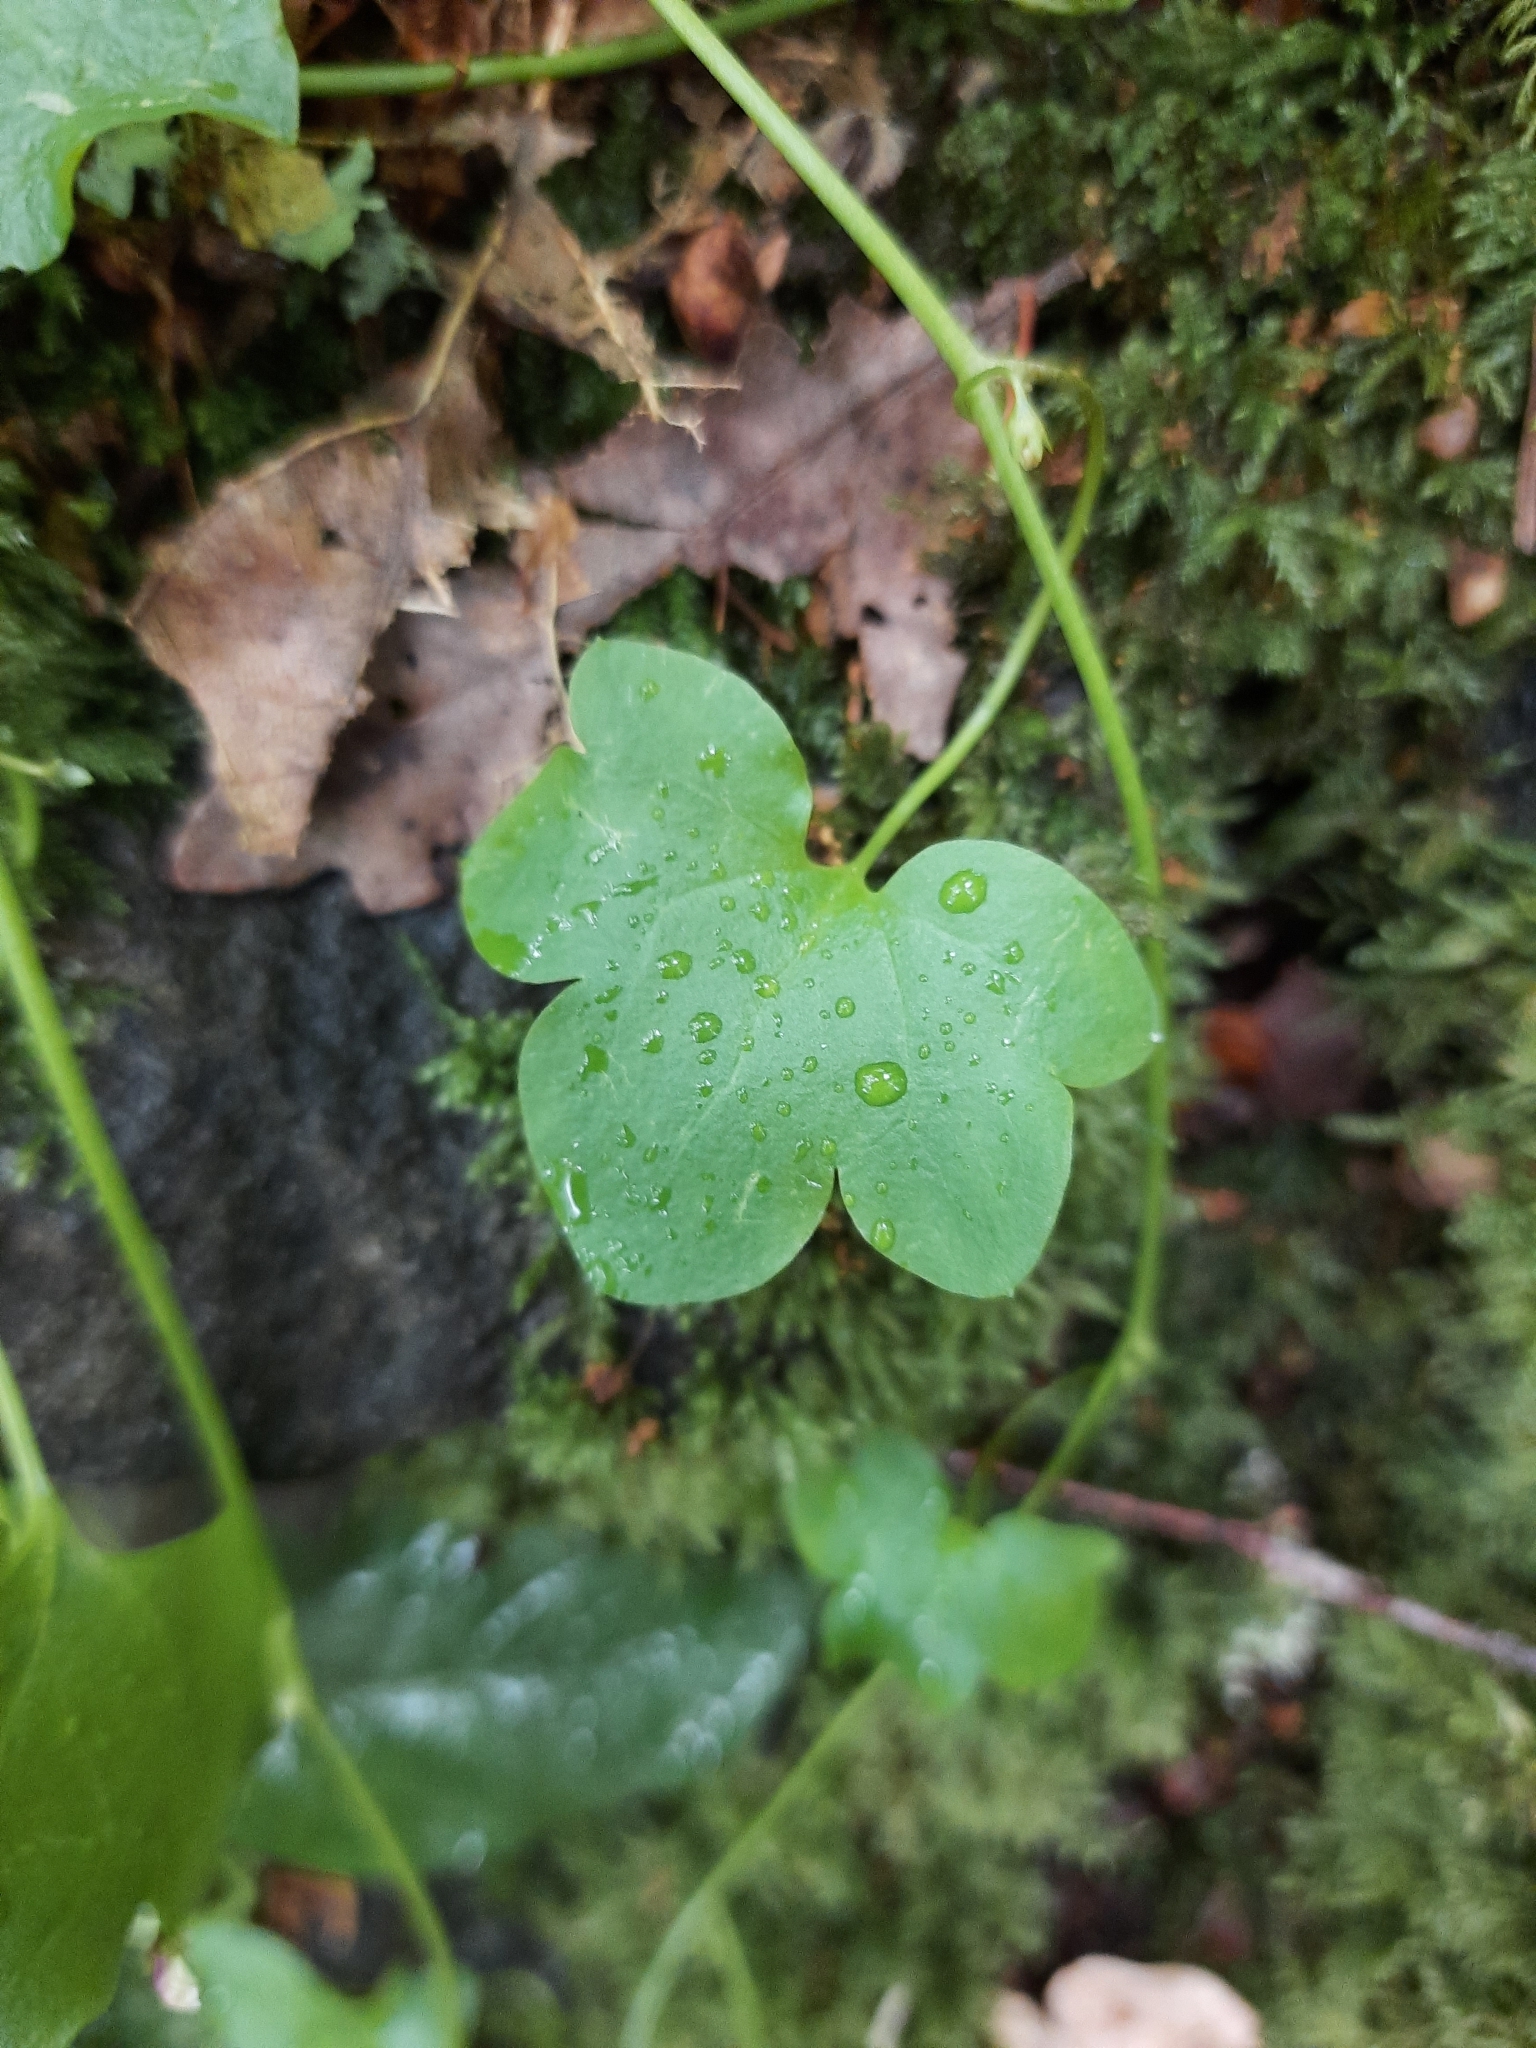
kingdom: Plantae
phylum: Tracheophyta
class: Magnoliopsida
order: Lamiales
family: Plantaginaceae
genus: Cymbalaria
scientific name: Cymbalaria muralis
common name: Ivy-leaved toadflax
